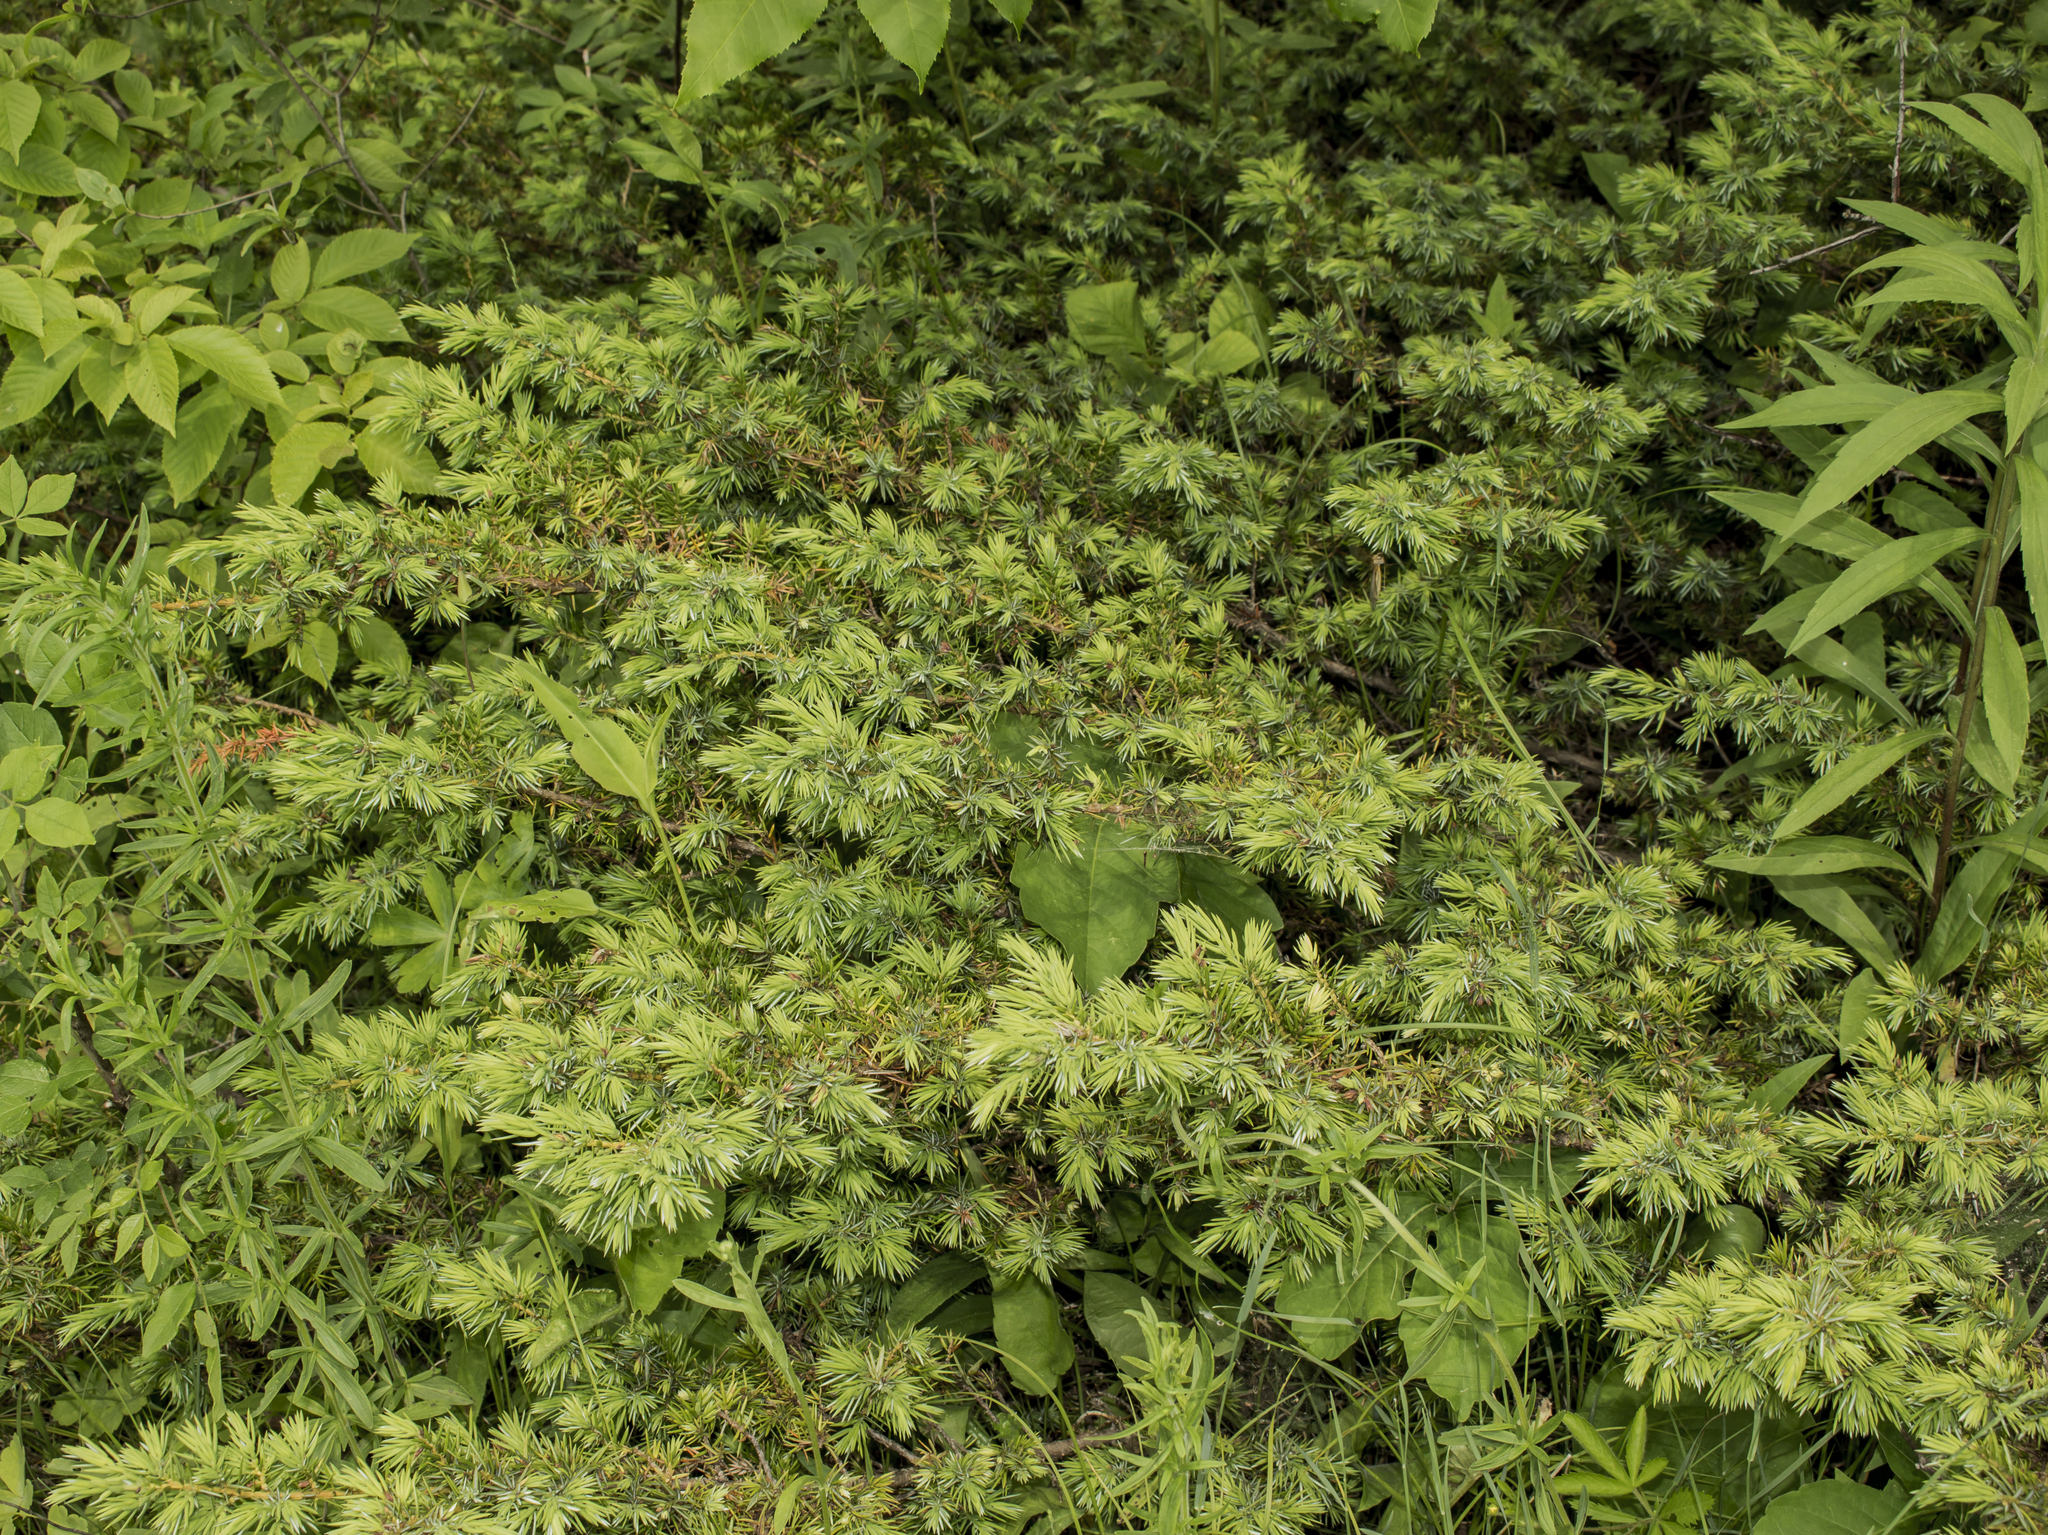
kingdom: Plantae
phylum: Tracheophyta
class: Pinopsida
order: Pinales
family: Cupressaceae
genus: Juniperus
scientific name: Juniperus communis
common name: Common juniper
